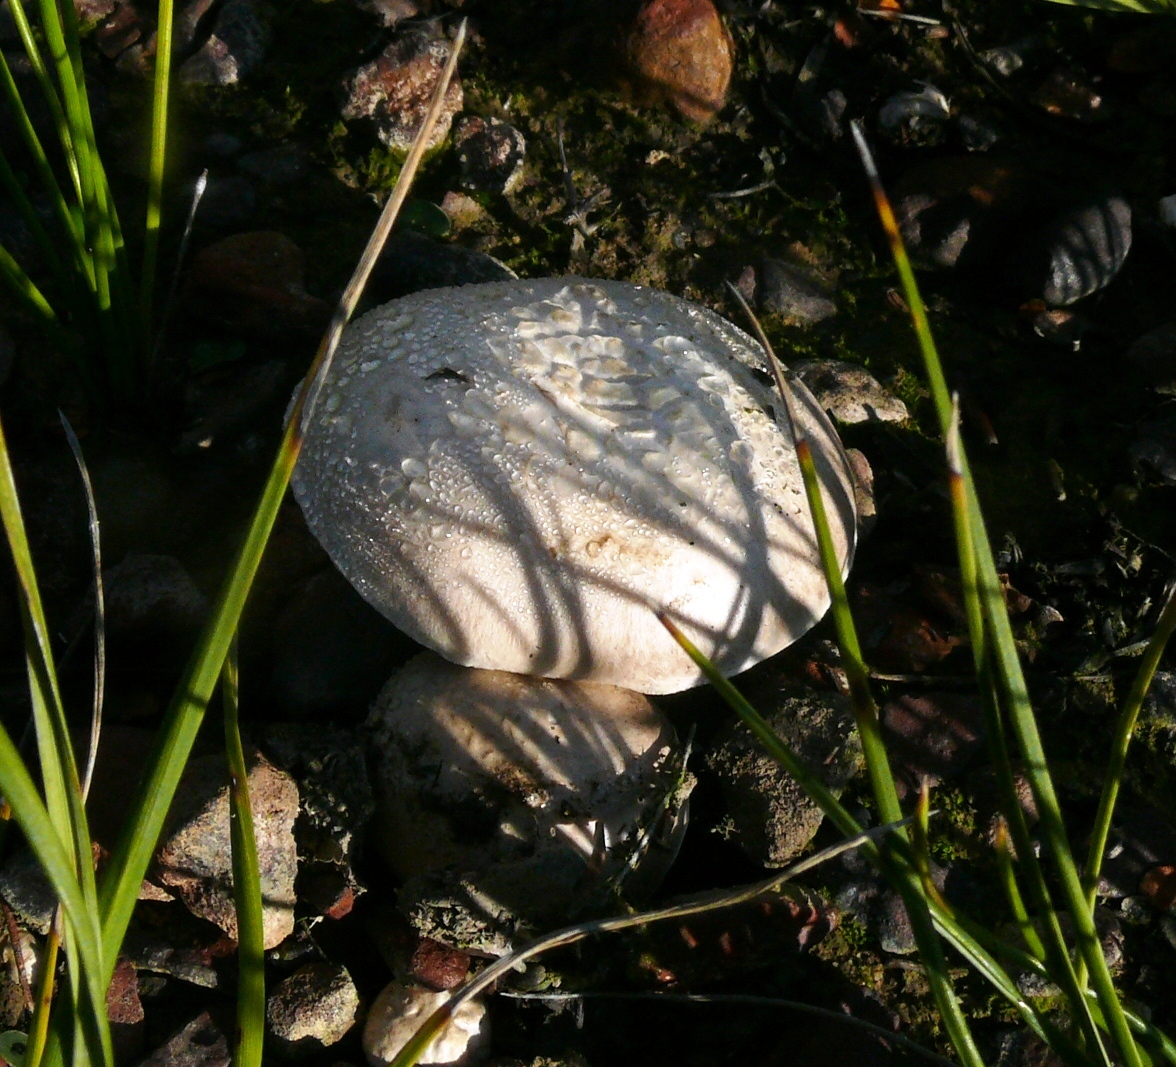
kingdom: Fungi
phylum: Basidiomycota
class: Agaricomycetes
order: Agaricales
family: Agaricaceae
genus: Agaricus
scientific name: Agaricus campestris
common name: Field mushroom
